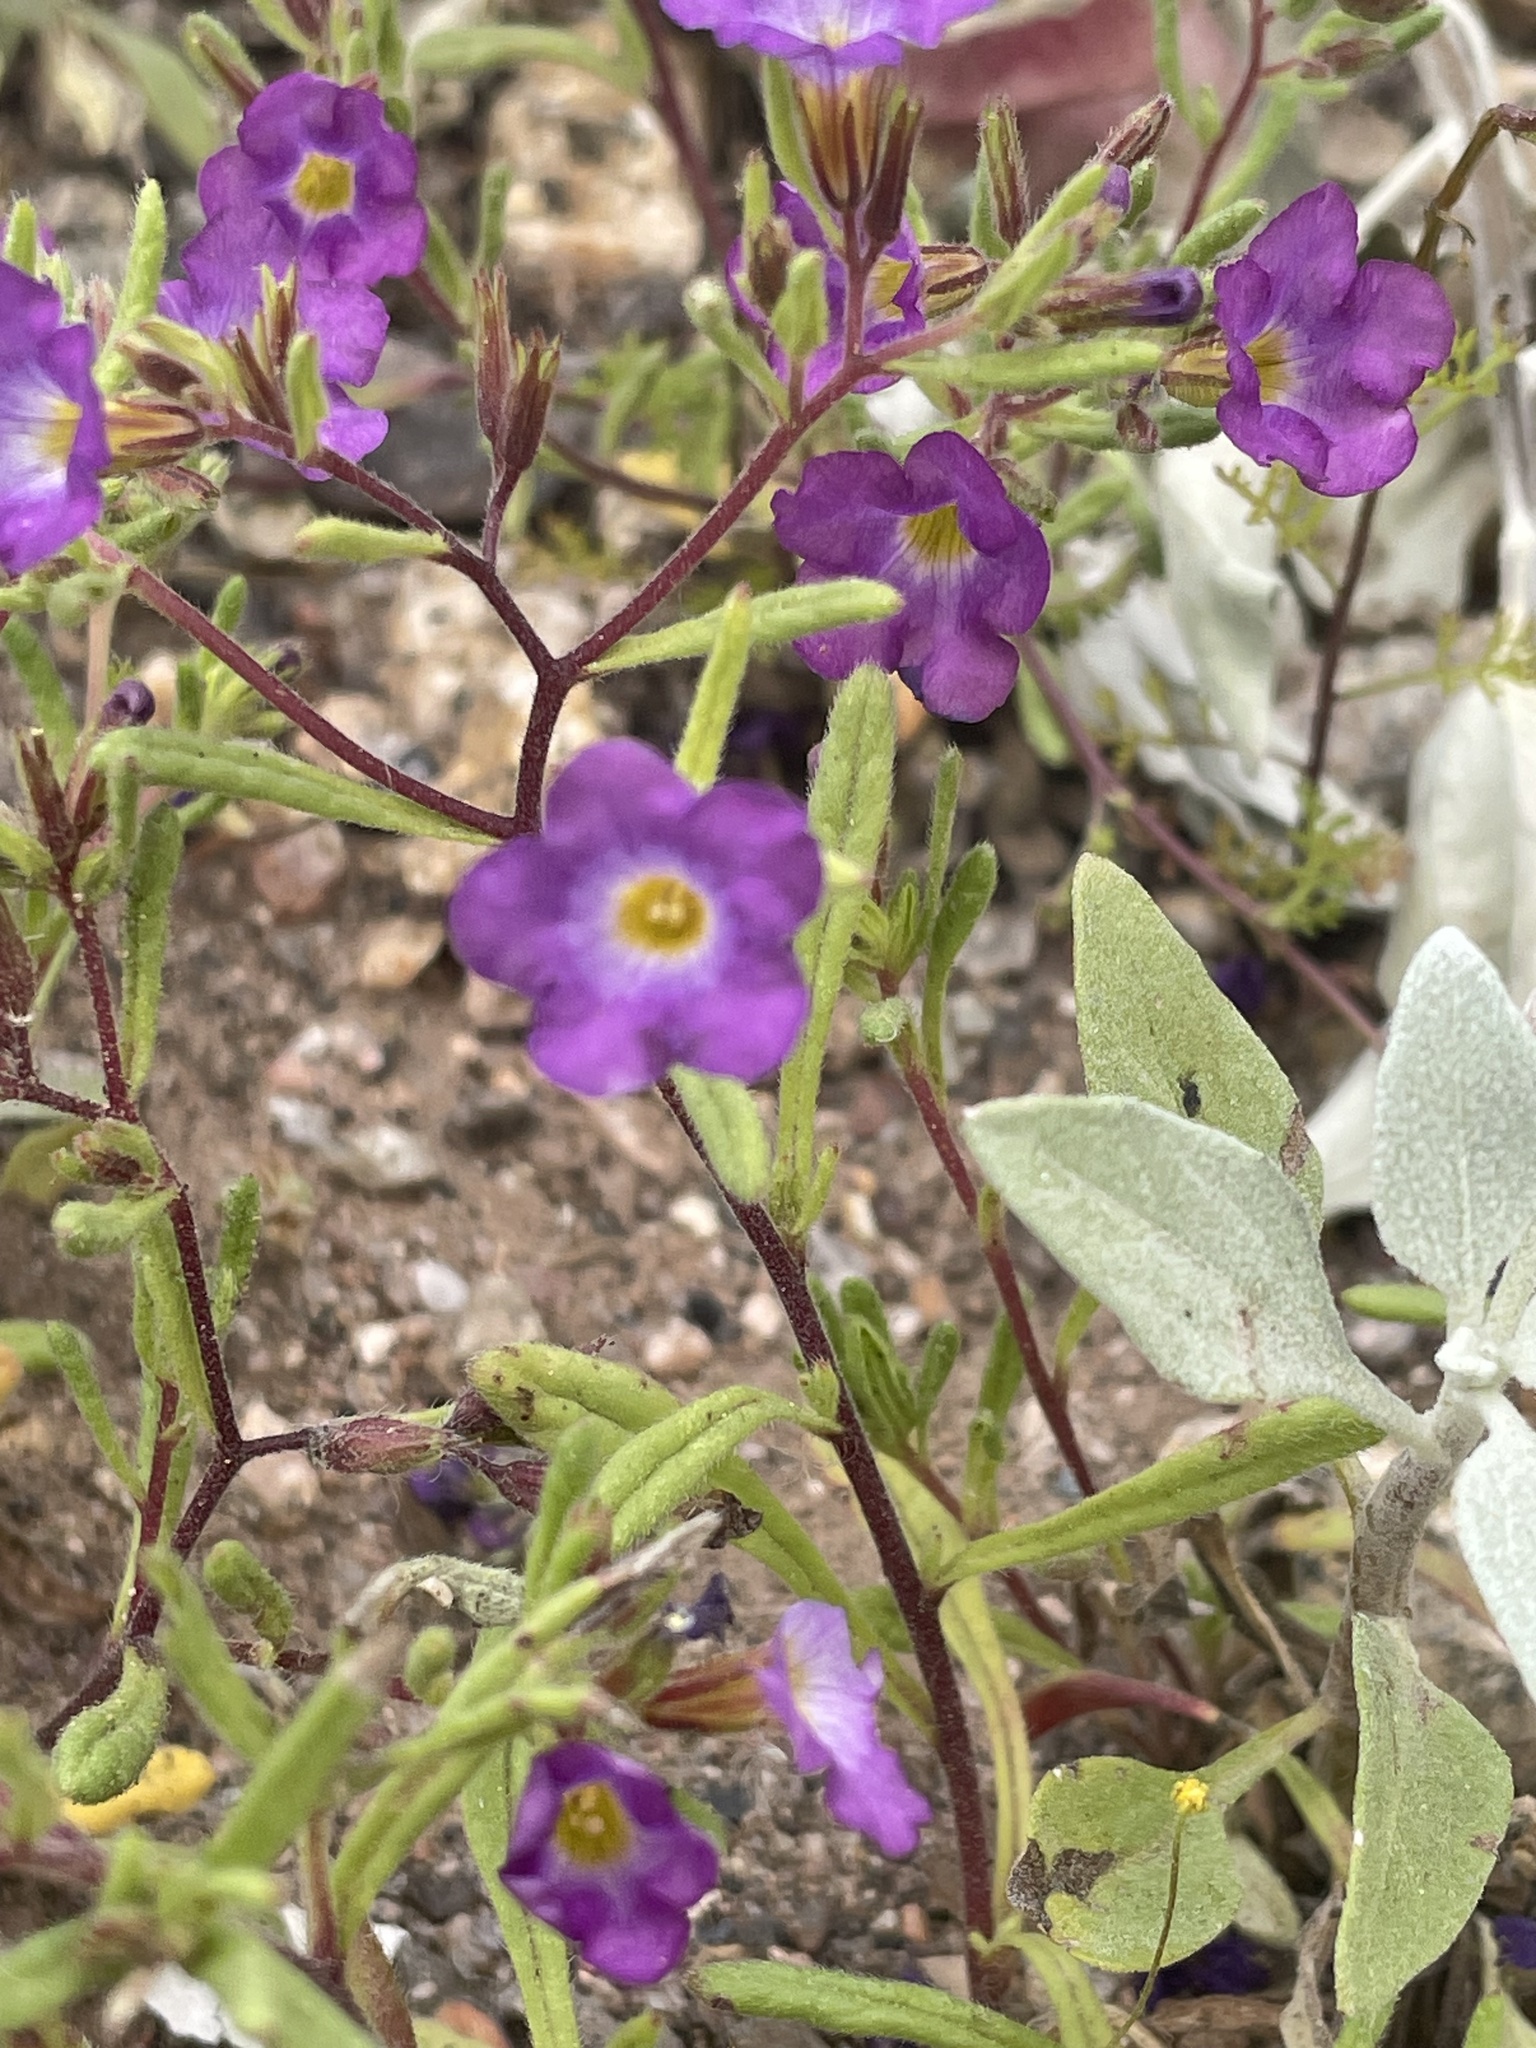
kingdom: Plantae
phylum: Tracheophyta
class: Magnoliopsida
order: Boraginales
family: Namaceae
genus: Nama
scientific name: Nama hispida
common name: Bristly nama
